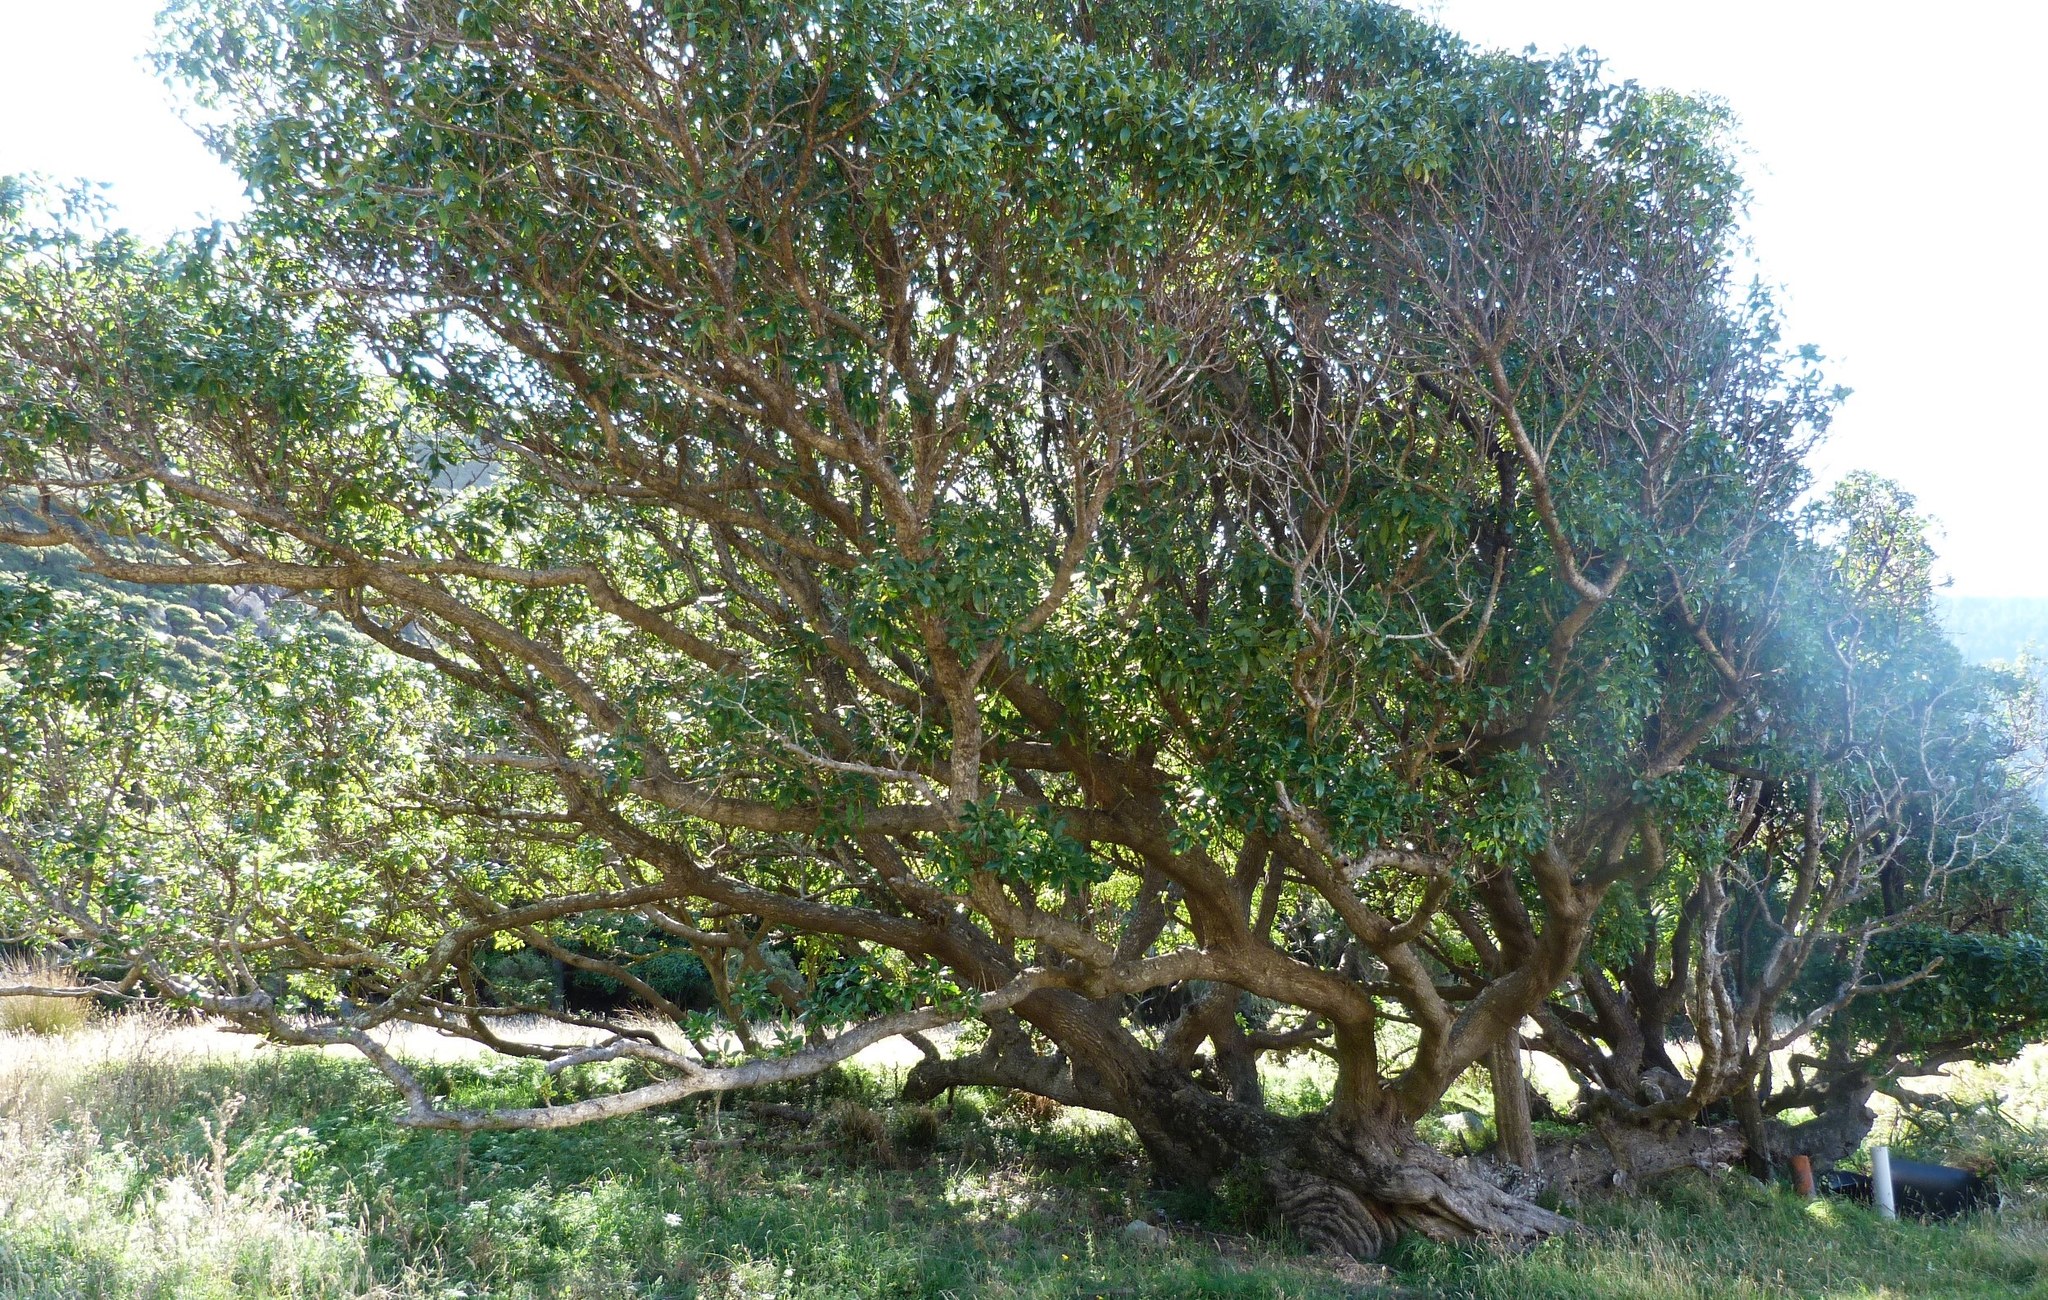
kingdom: Plantae
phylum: Tracheophyta
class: Magnoliopsida
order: Lamiales
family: Scrophulariaceae
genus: Myoporum
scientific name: Myoporum laetum
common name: Ngaio tree
